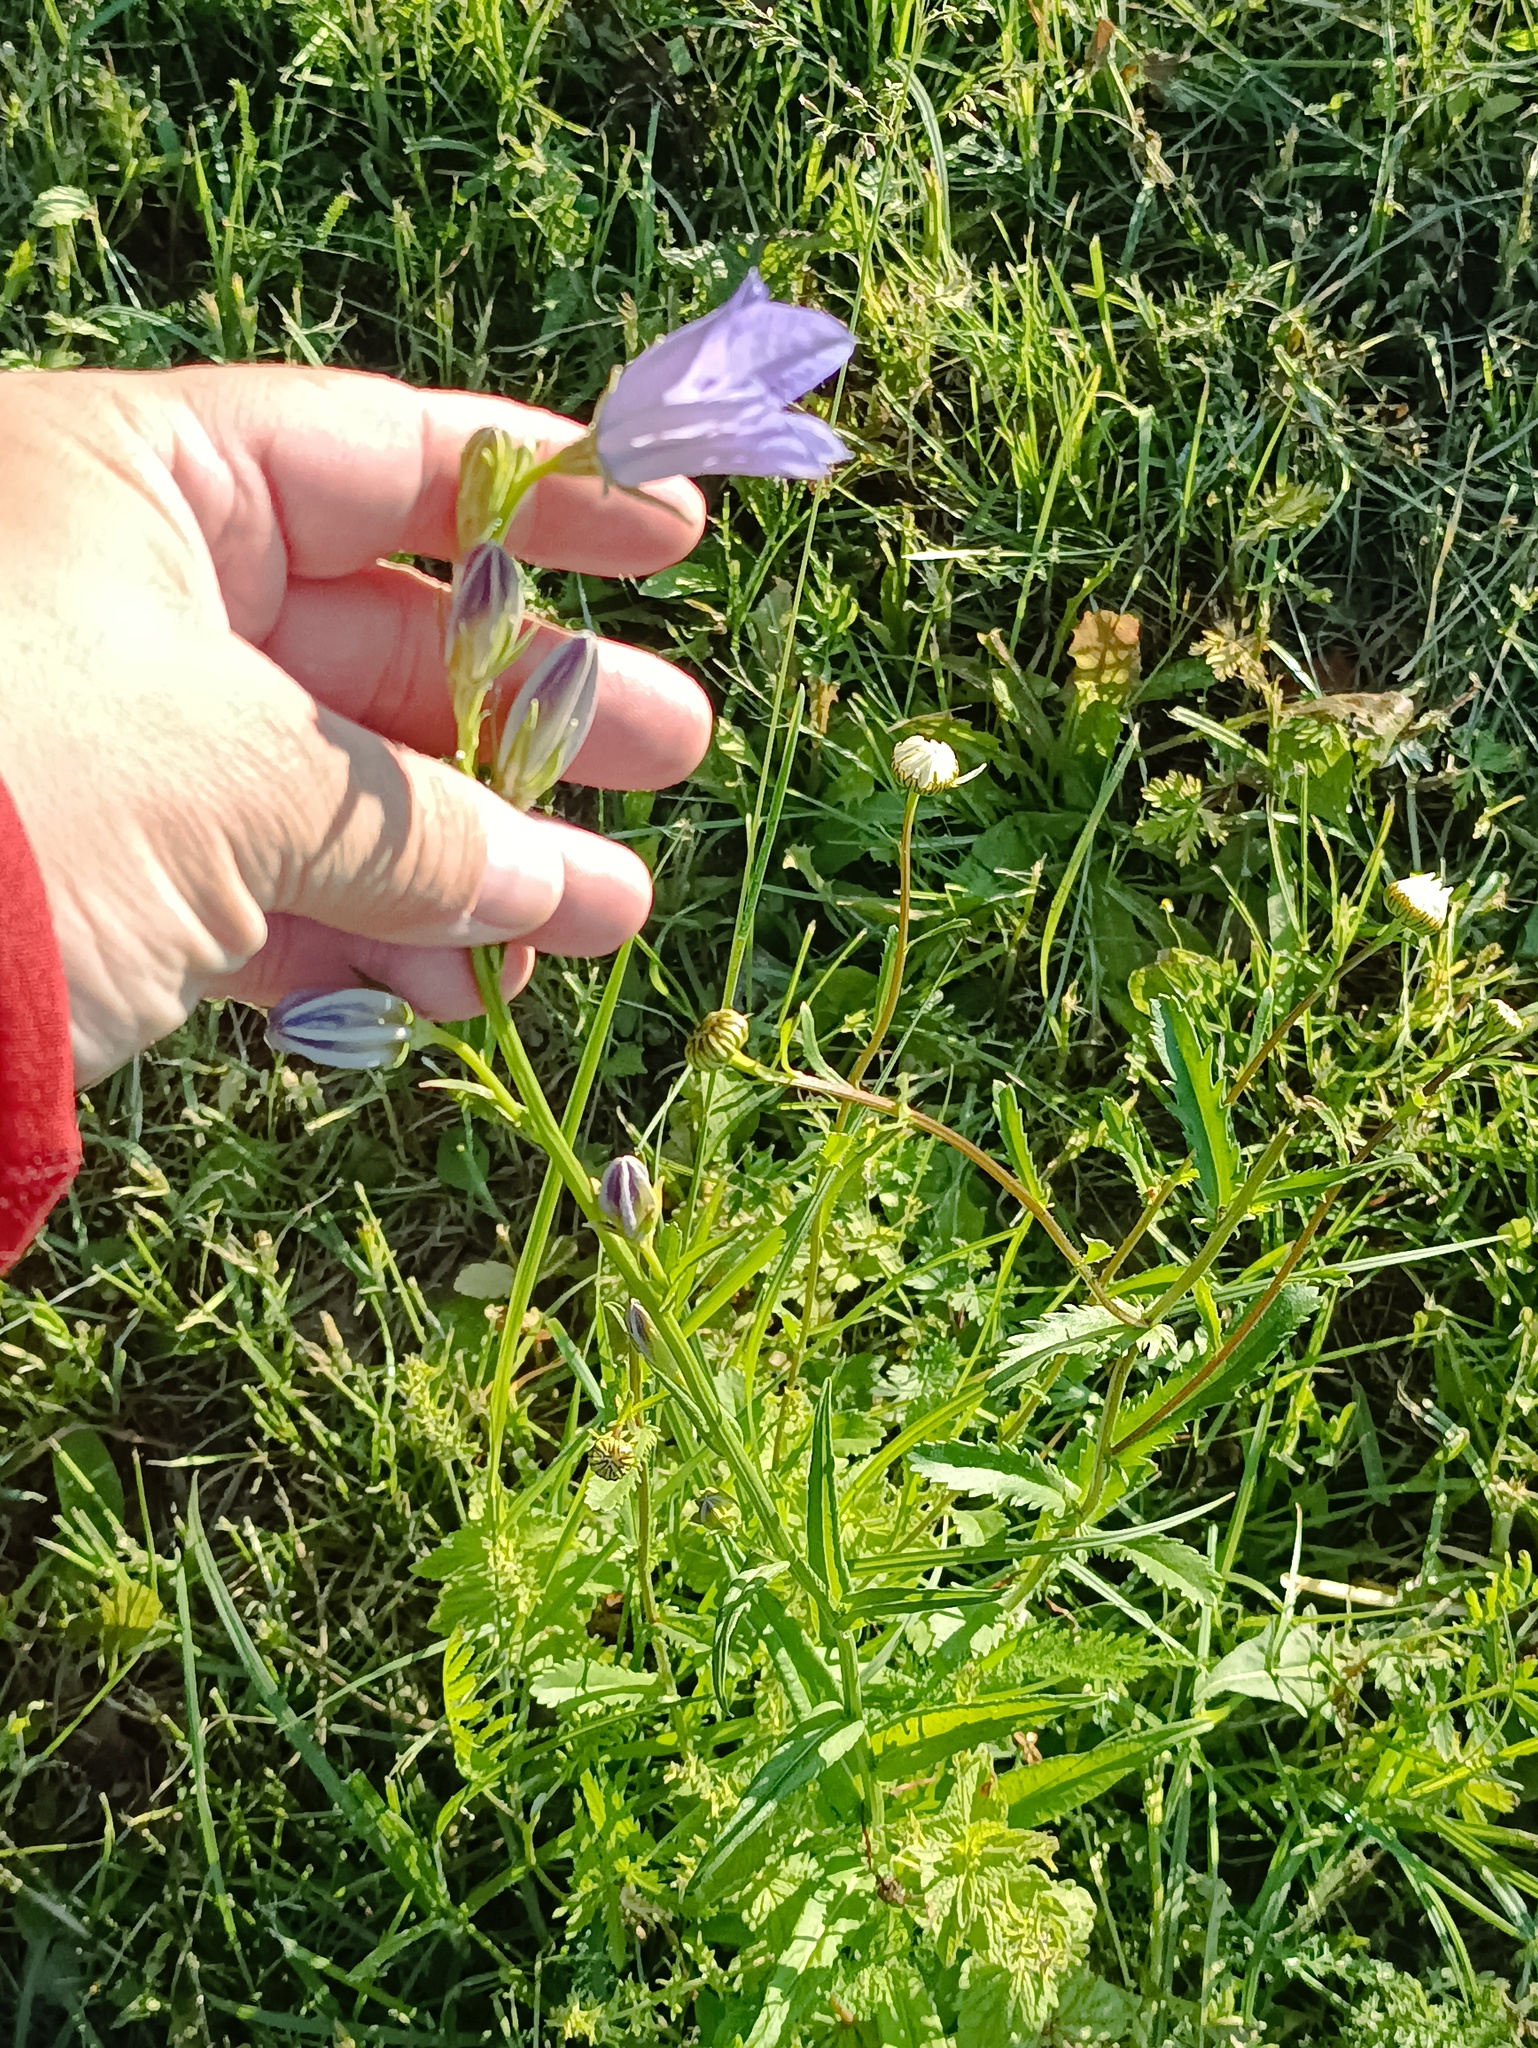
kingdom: Plantae
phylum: Tracheophyta
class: Magnoliopsida
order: Asterales
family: Campanulaceae
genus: Campanula
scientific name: Campanula persicifolia
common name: Peach-leaved bellflower
